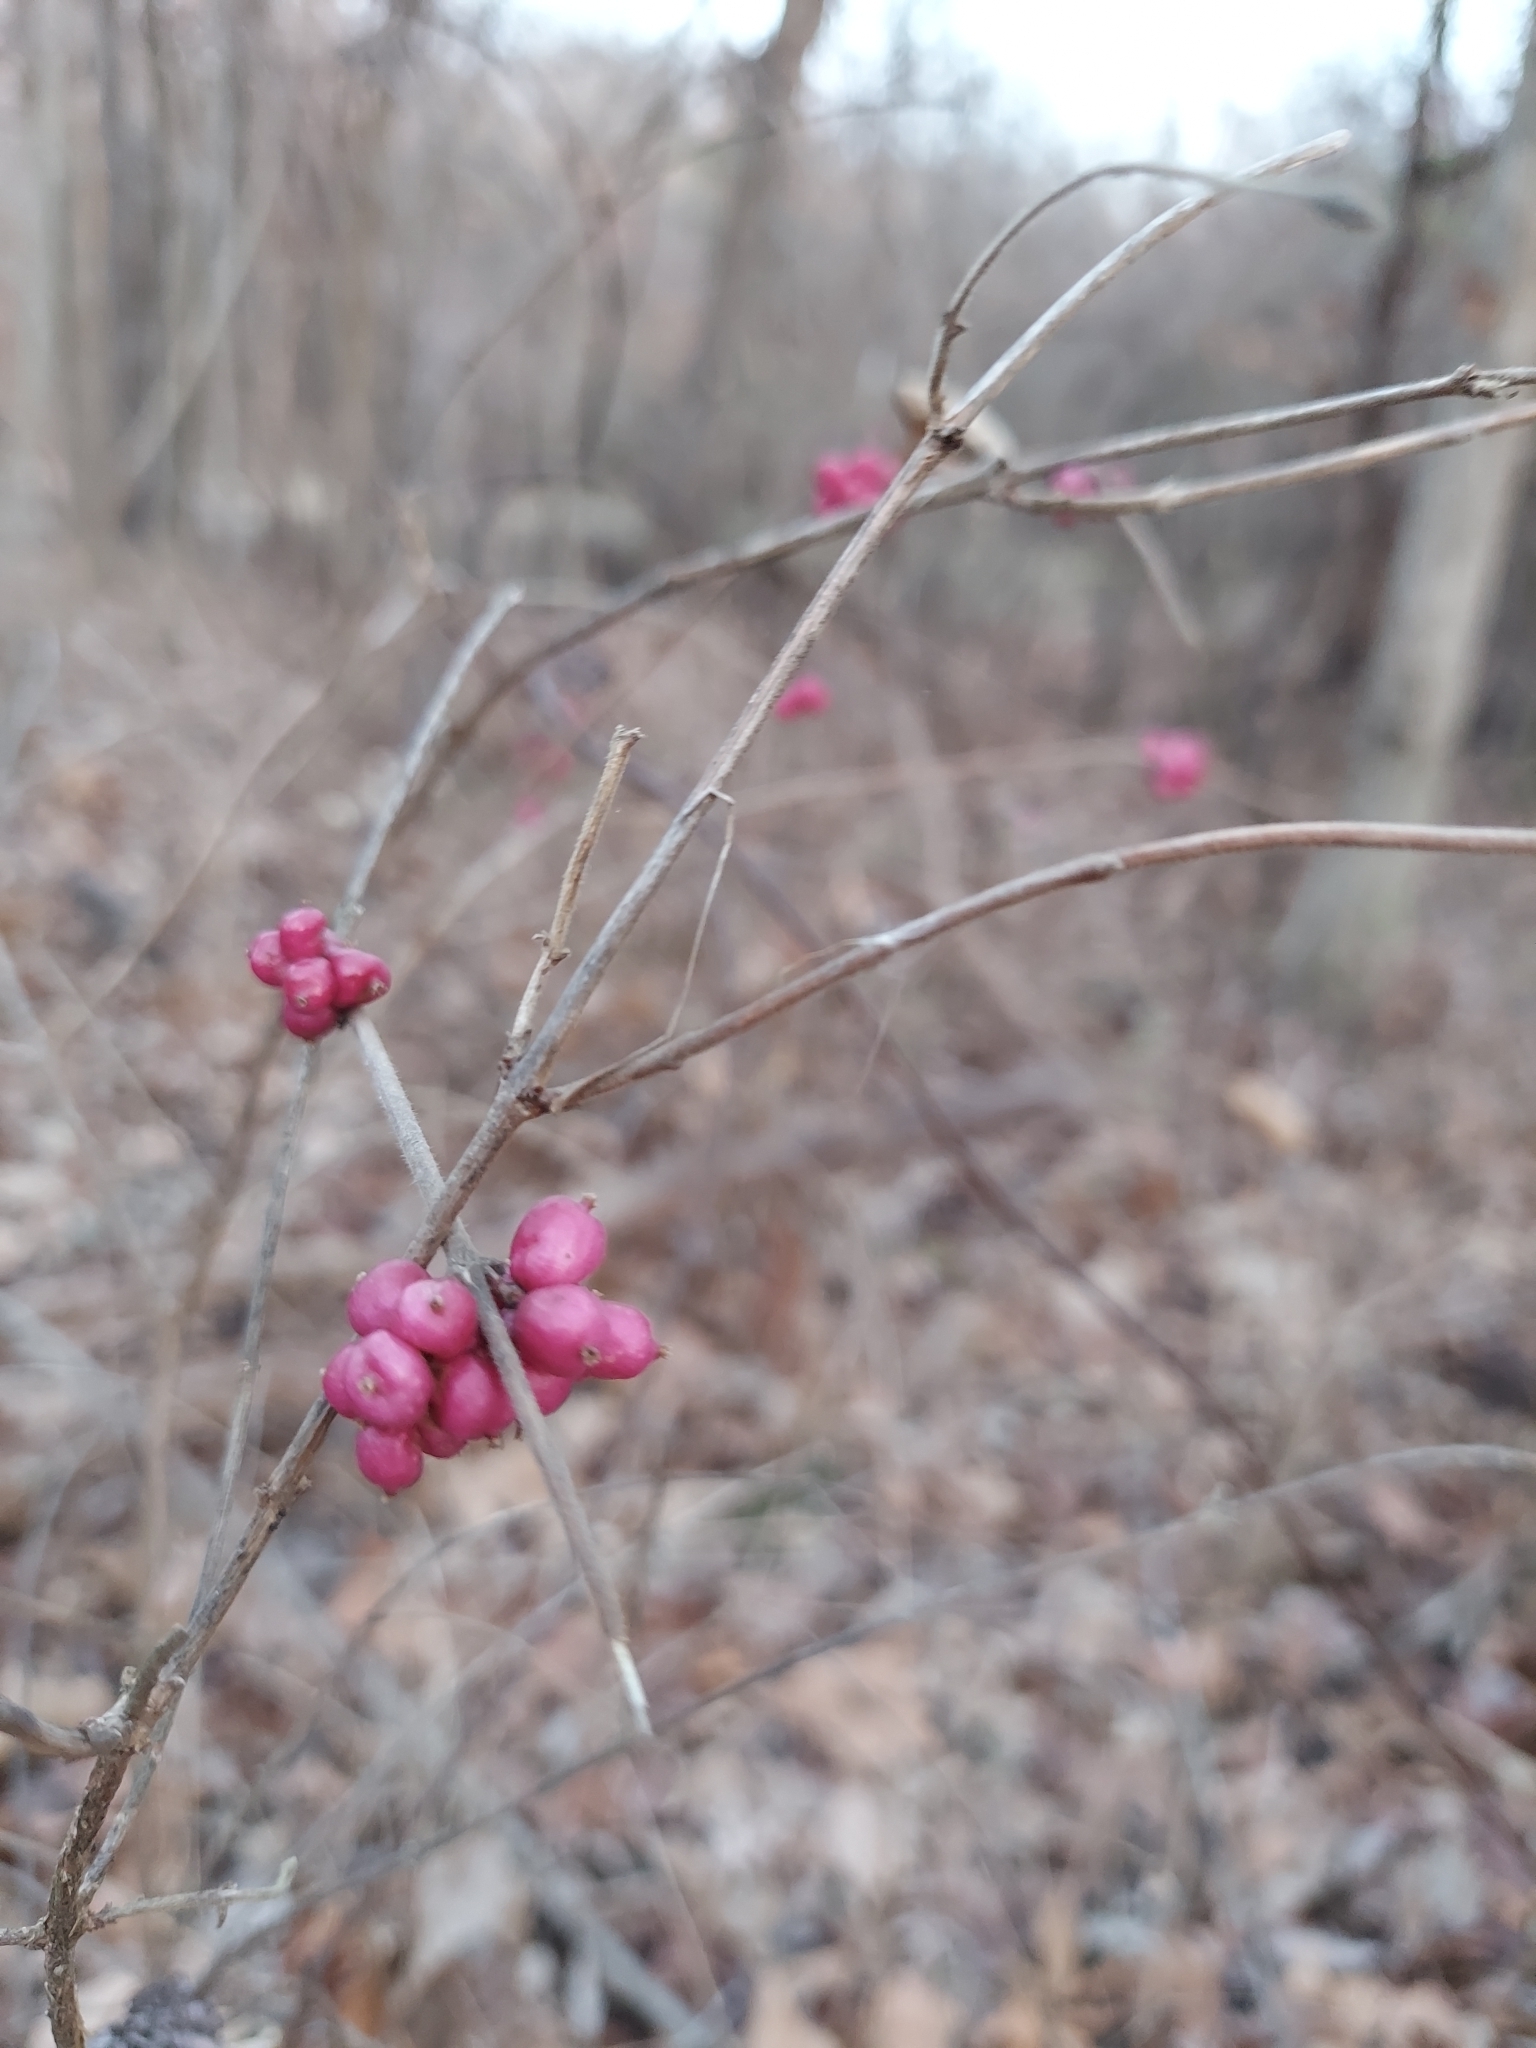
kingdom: Plantae
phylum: Tracheophyta
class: Magnoliopsida
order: Dipsacales
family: Caprifoliaceae
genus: Symphoricarpos
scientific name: Symphoricarpos orbiculatus
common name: Coralberry
